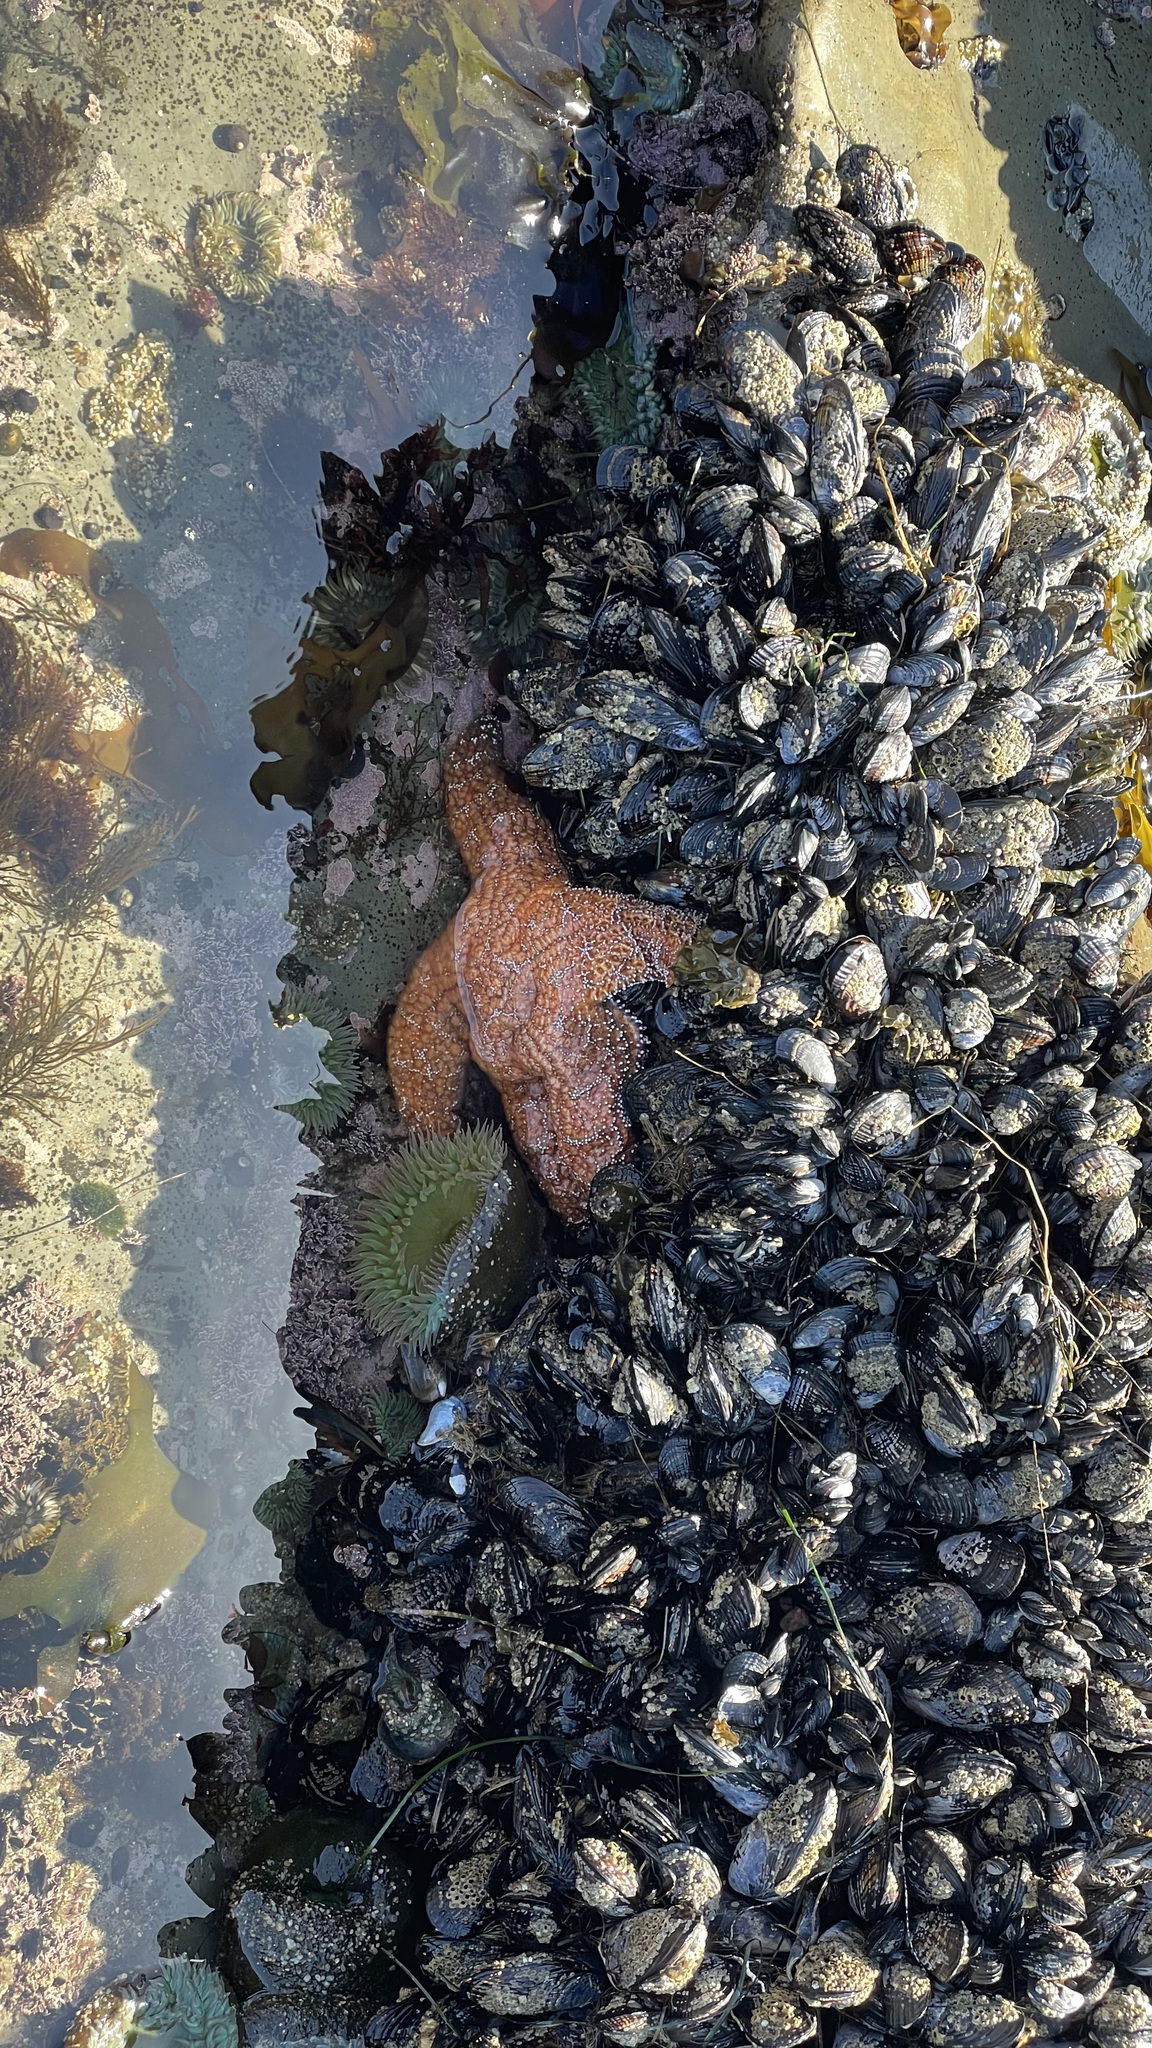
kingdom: Animalia
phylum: Mollusca
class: Bivalvia
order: Mytilida
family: Mytilidae
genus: Mytilus
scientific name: Mytilus californianus
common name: California mussel
